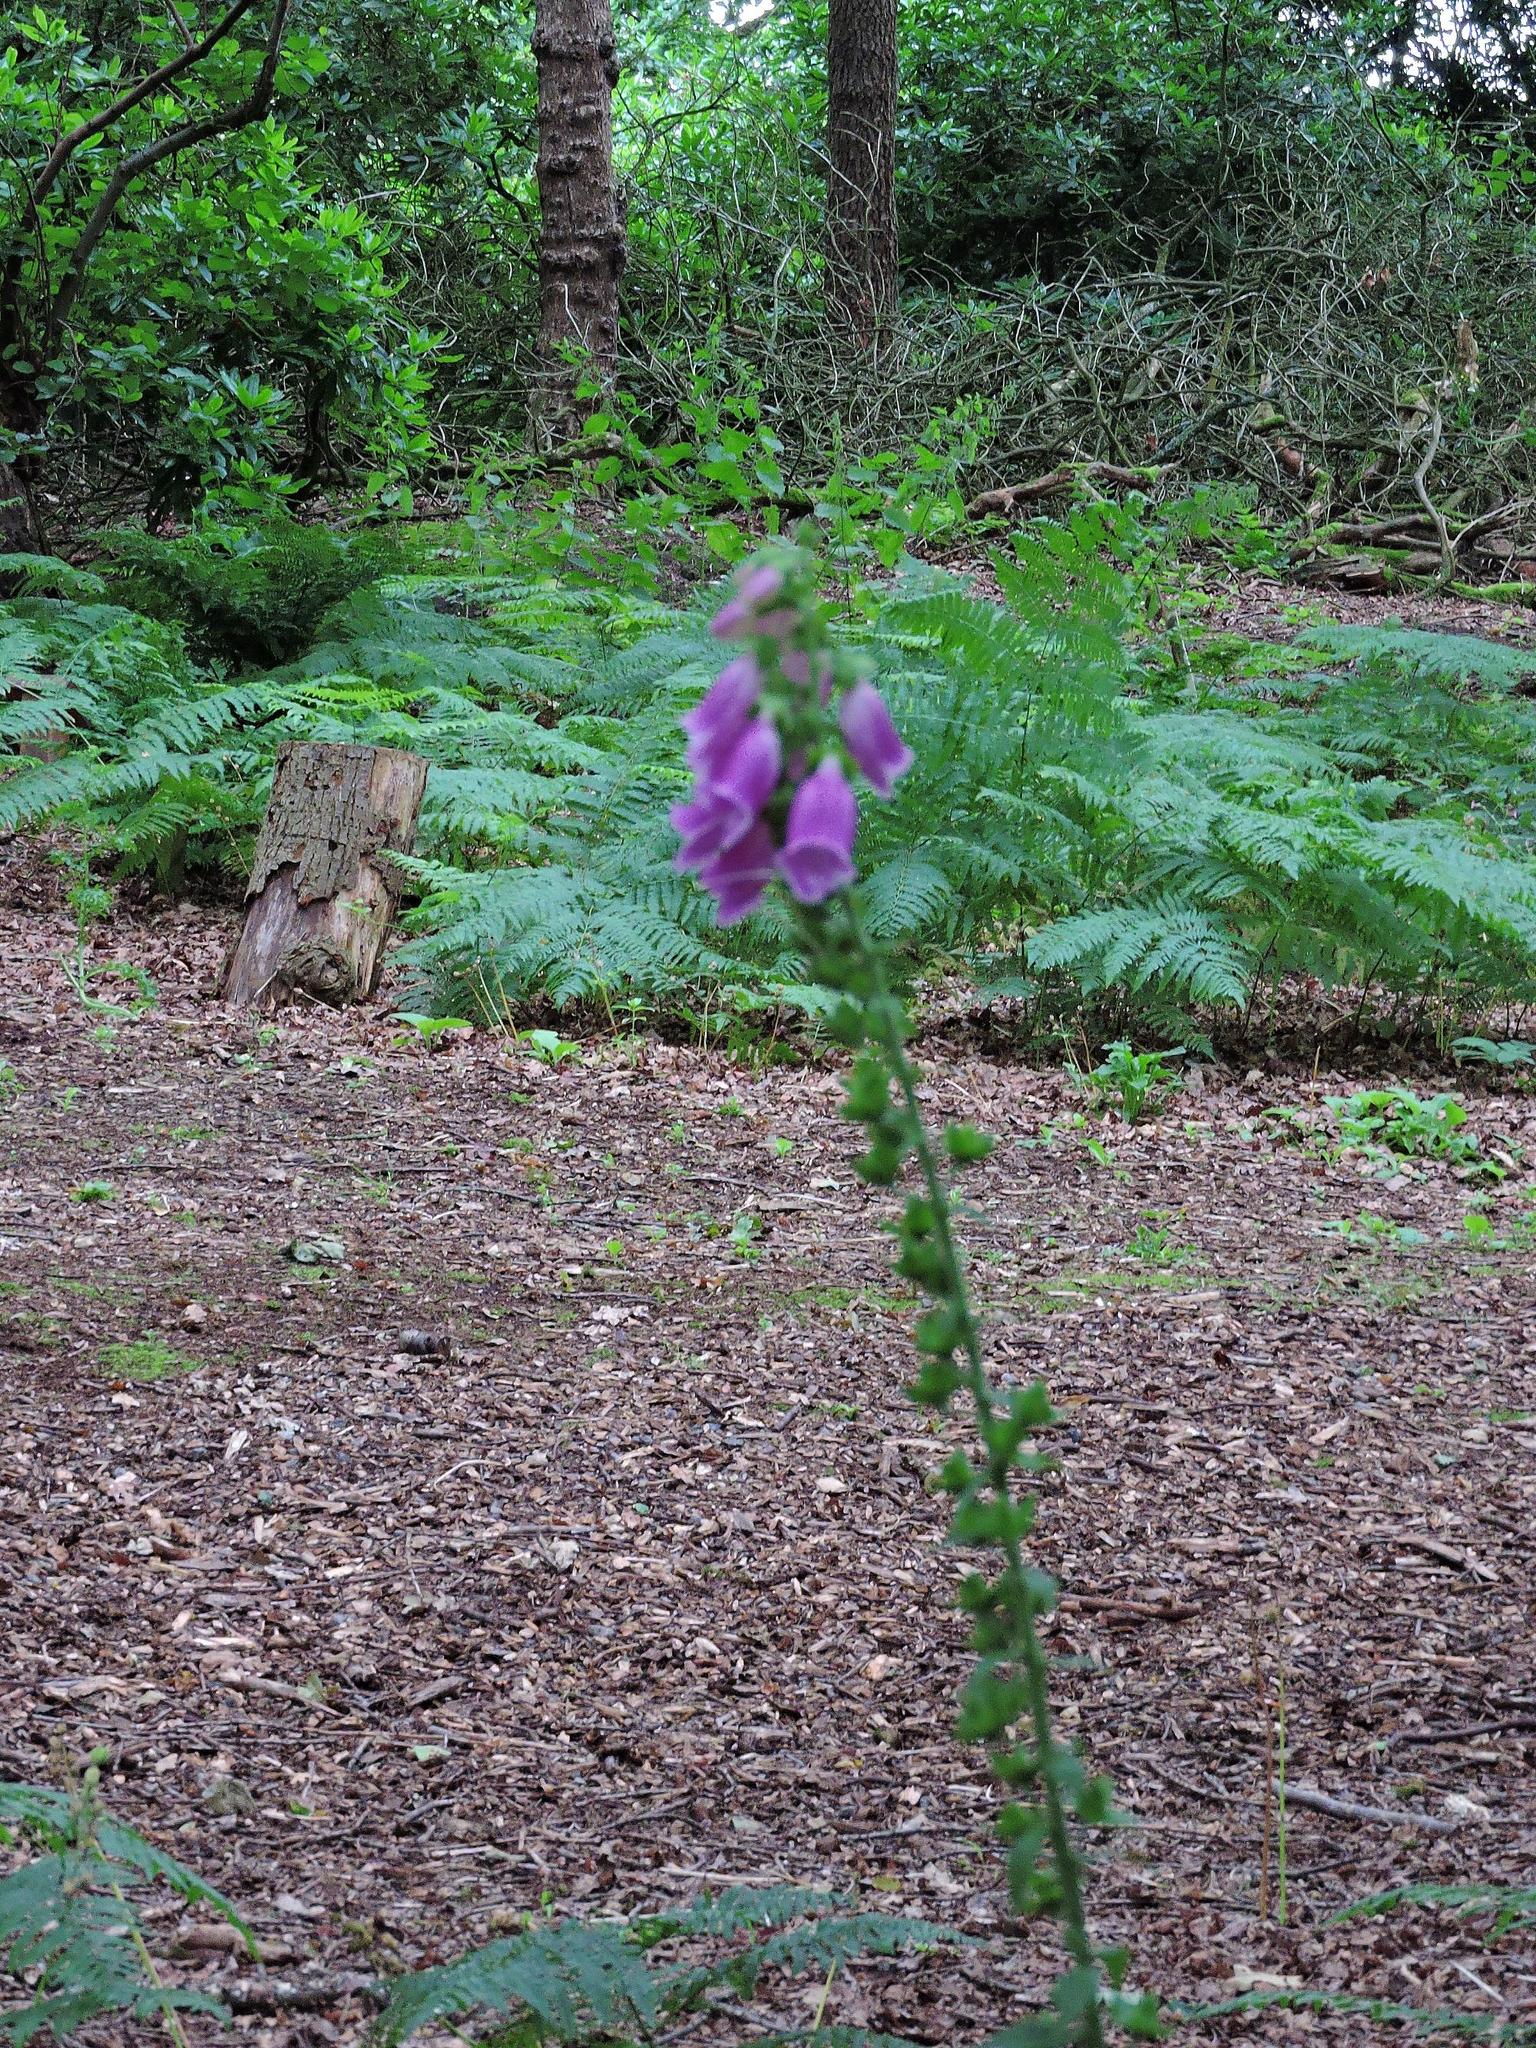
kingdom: Plantae
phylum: Tracheophyta
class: Magnoliopsida
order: Lamiales
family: Plantaginaceae
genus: Digitalis
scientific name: Digitalis purpurea
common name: Foxglove
